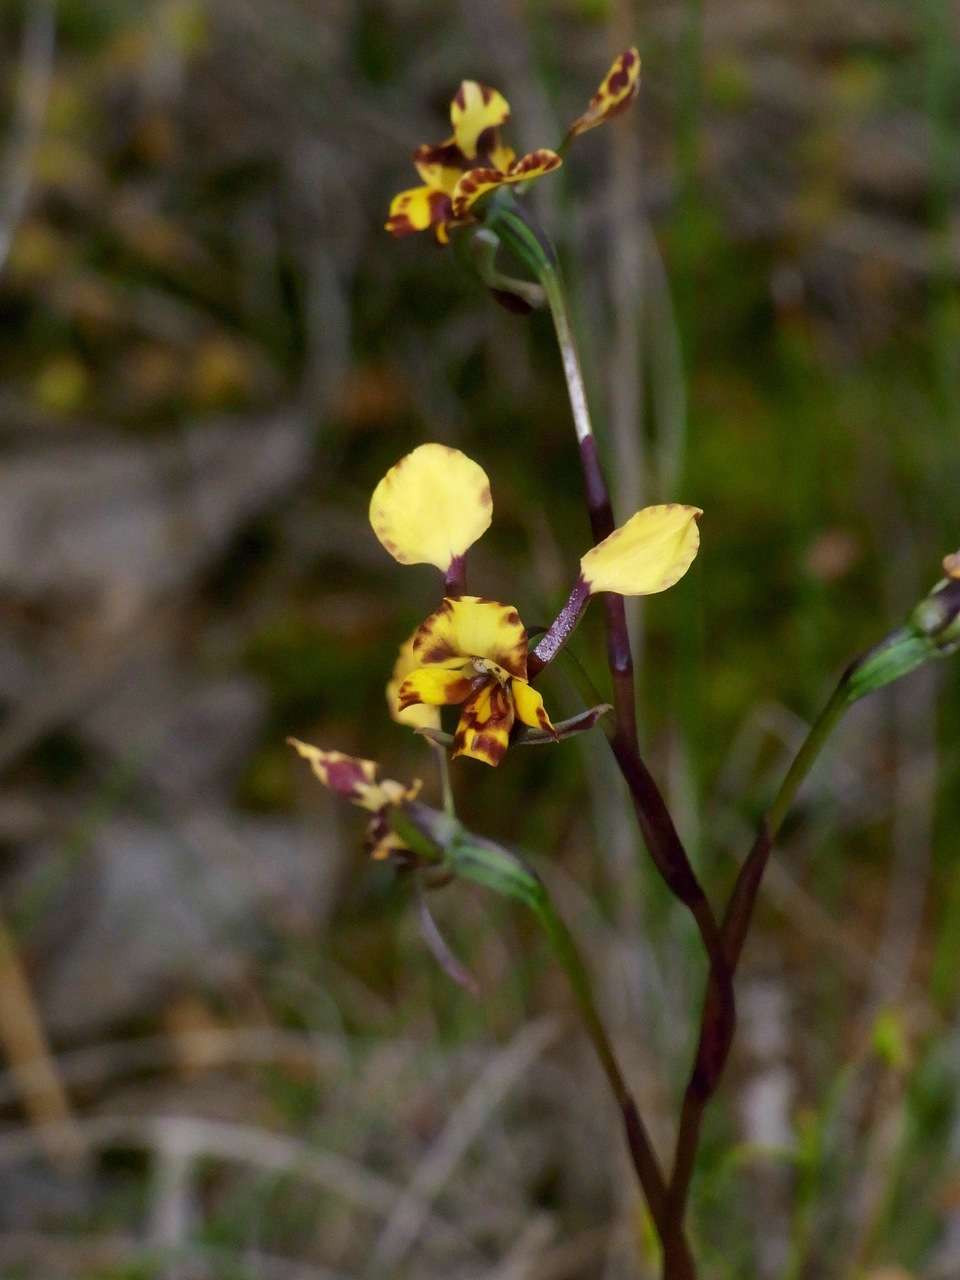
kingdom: Plantae
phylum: Tracheophyta
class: Liliopsida
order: Asparagales
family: Orchidaceae
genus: Diuris
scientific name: Diuris pardina
